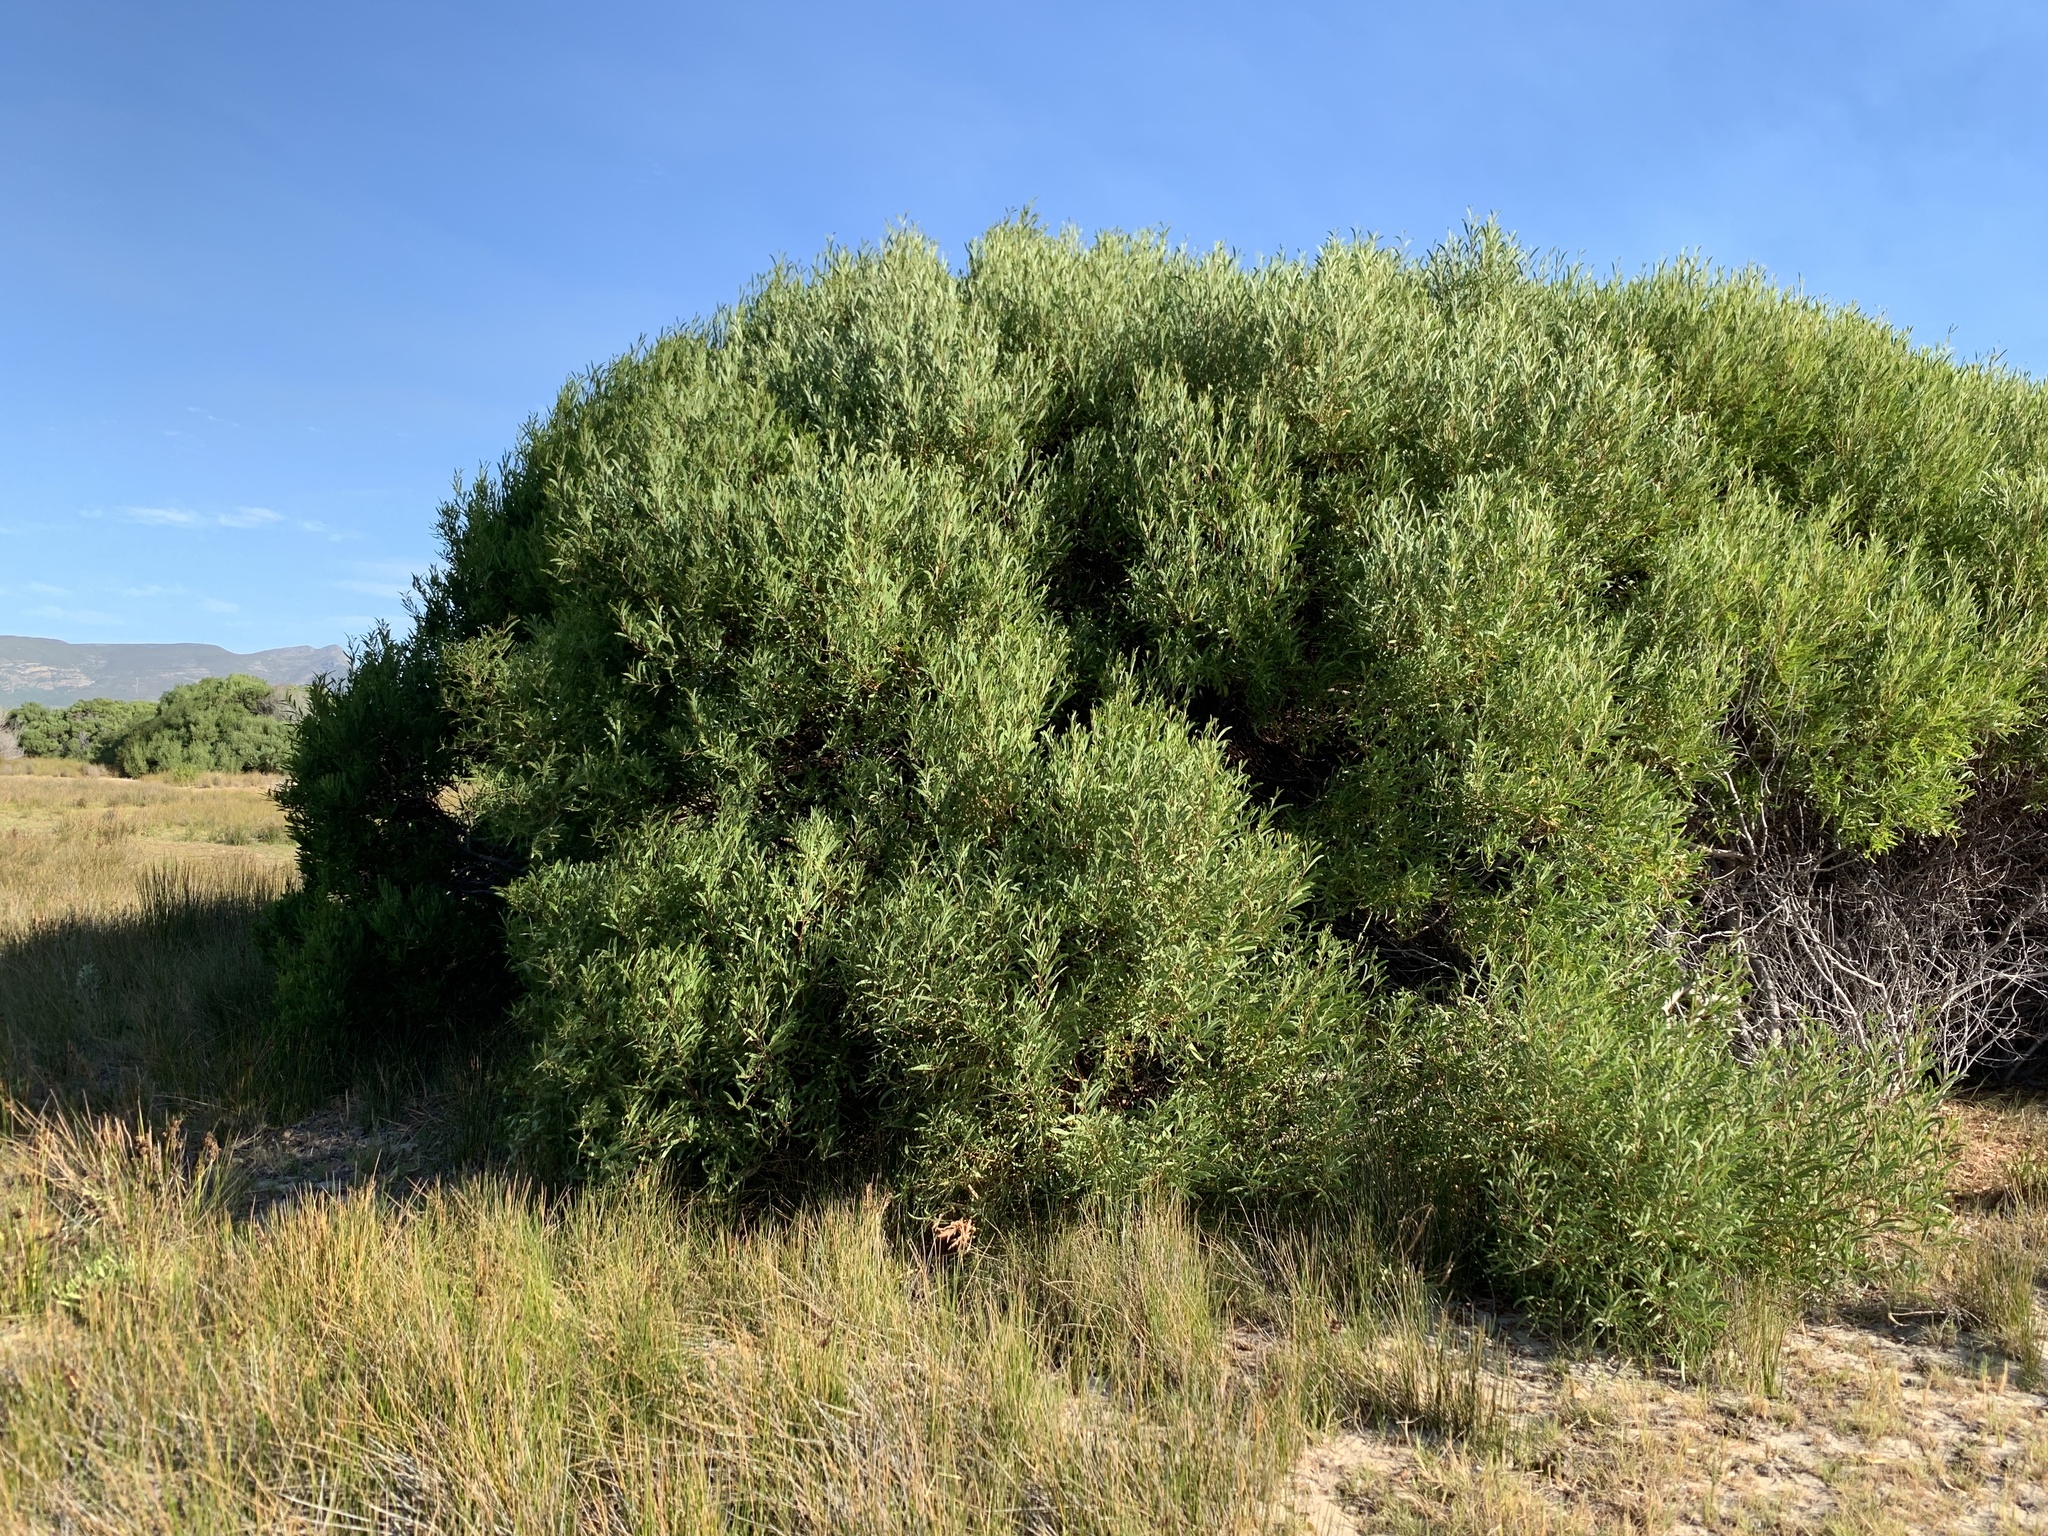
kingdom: Plantae
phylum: Tracheophyta
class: Magnoliopsida
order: Fabales
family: Fabaceae
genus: Acacia
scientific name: Acacia cyclops
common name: Coastal wattle
